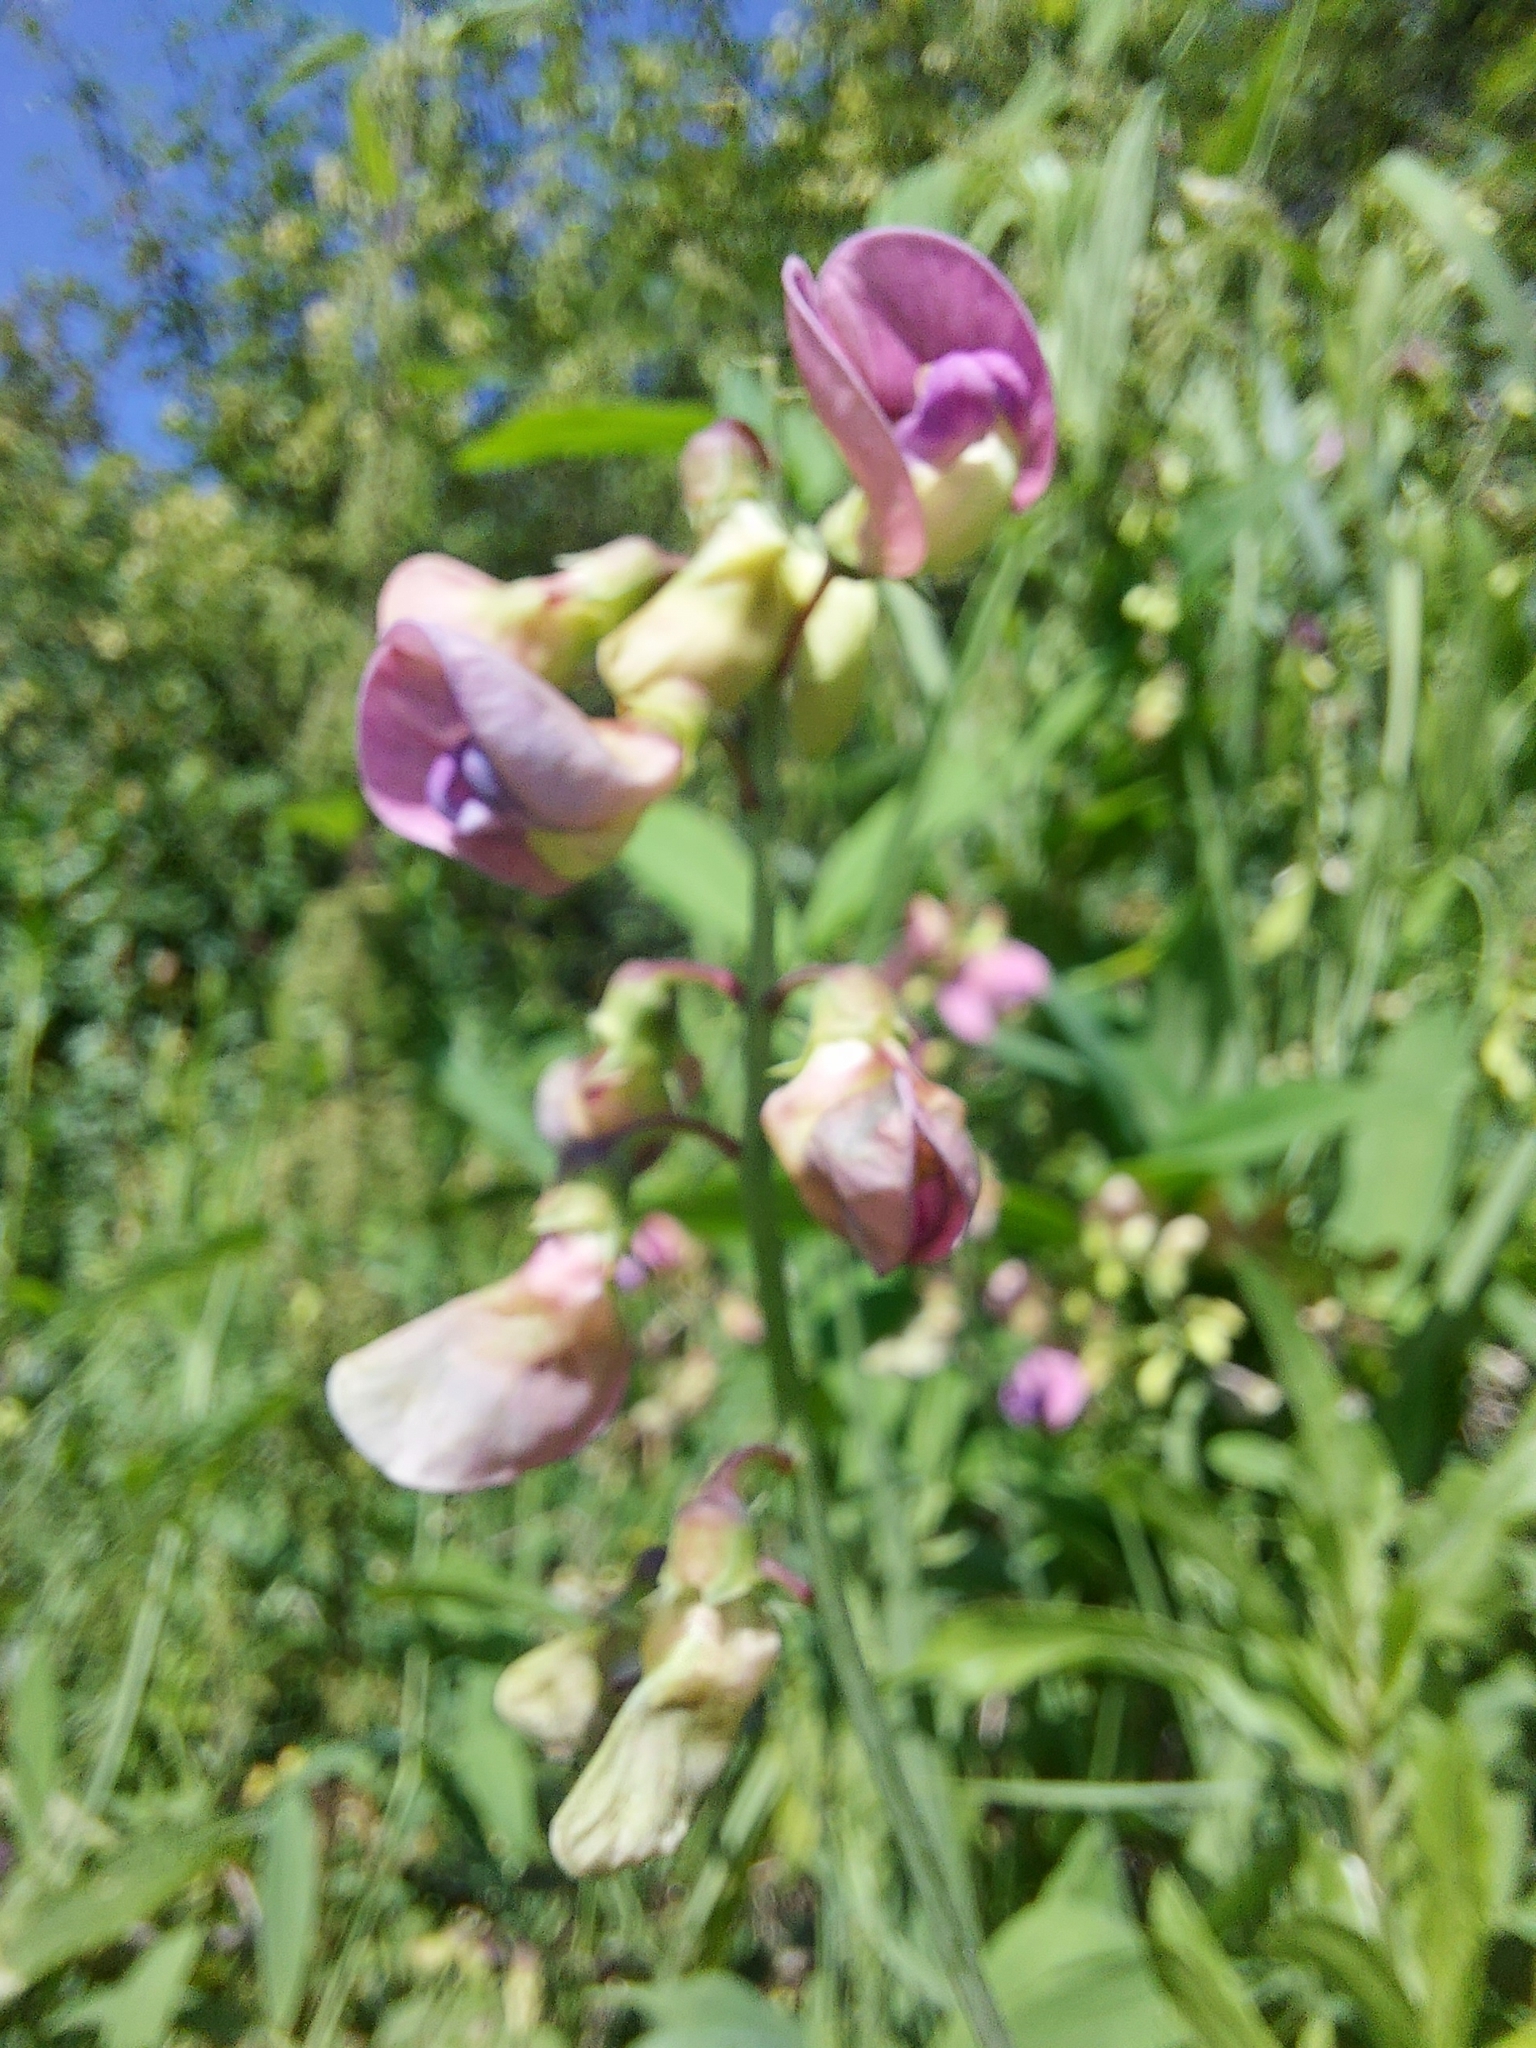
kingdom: Plantae
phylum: Tracheophyta
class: Magnoliopsida
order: Fabales
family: Fabaceae
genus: Lathyrus
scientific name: Lathyrus sylvestris
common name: Flat pea
